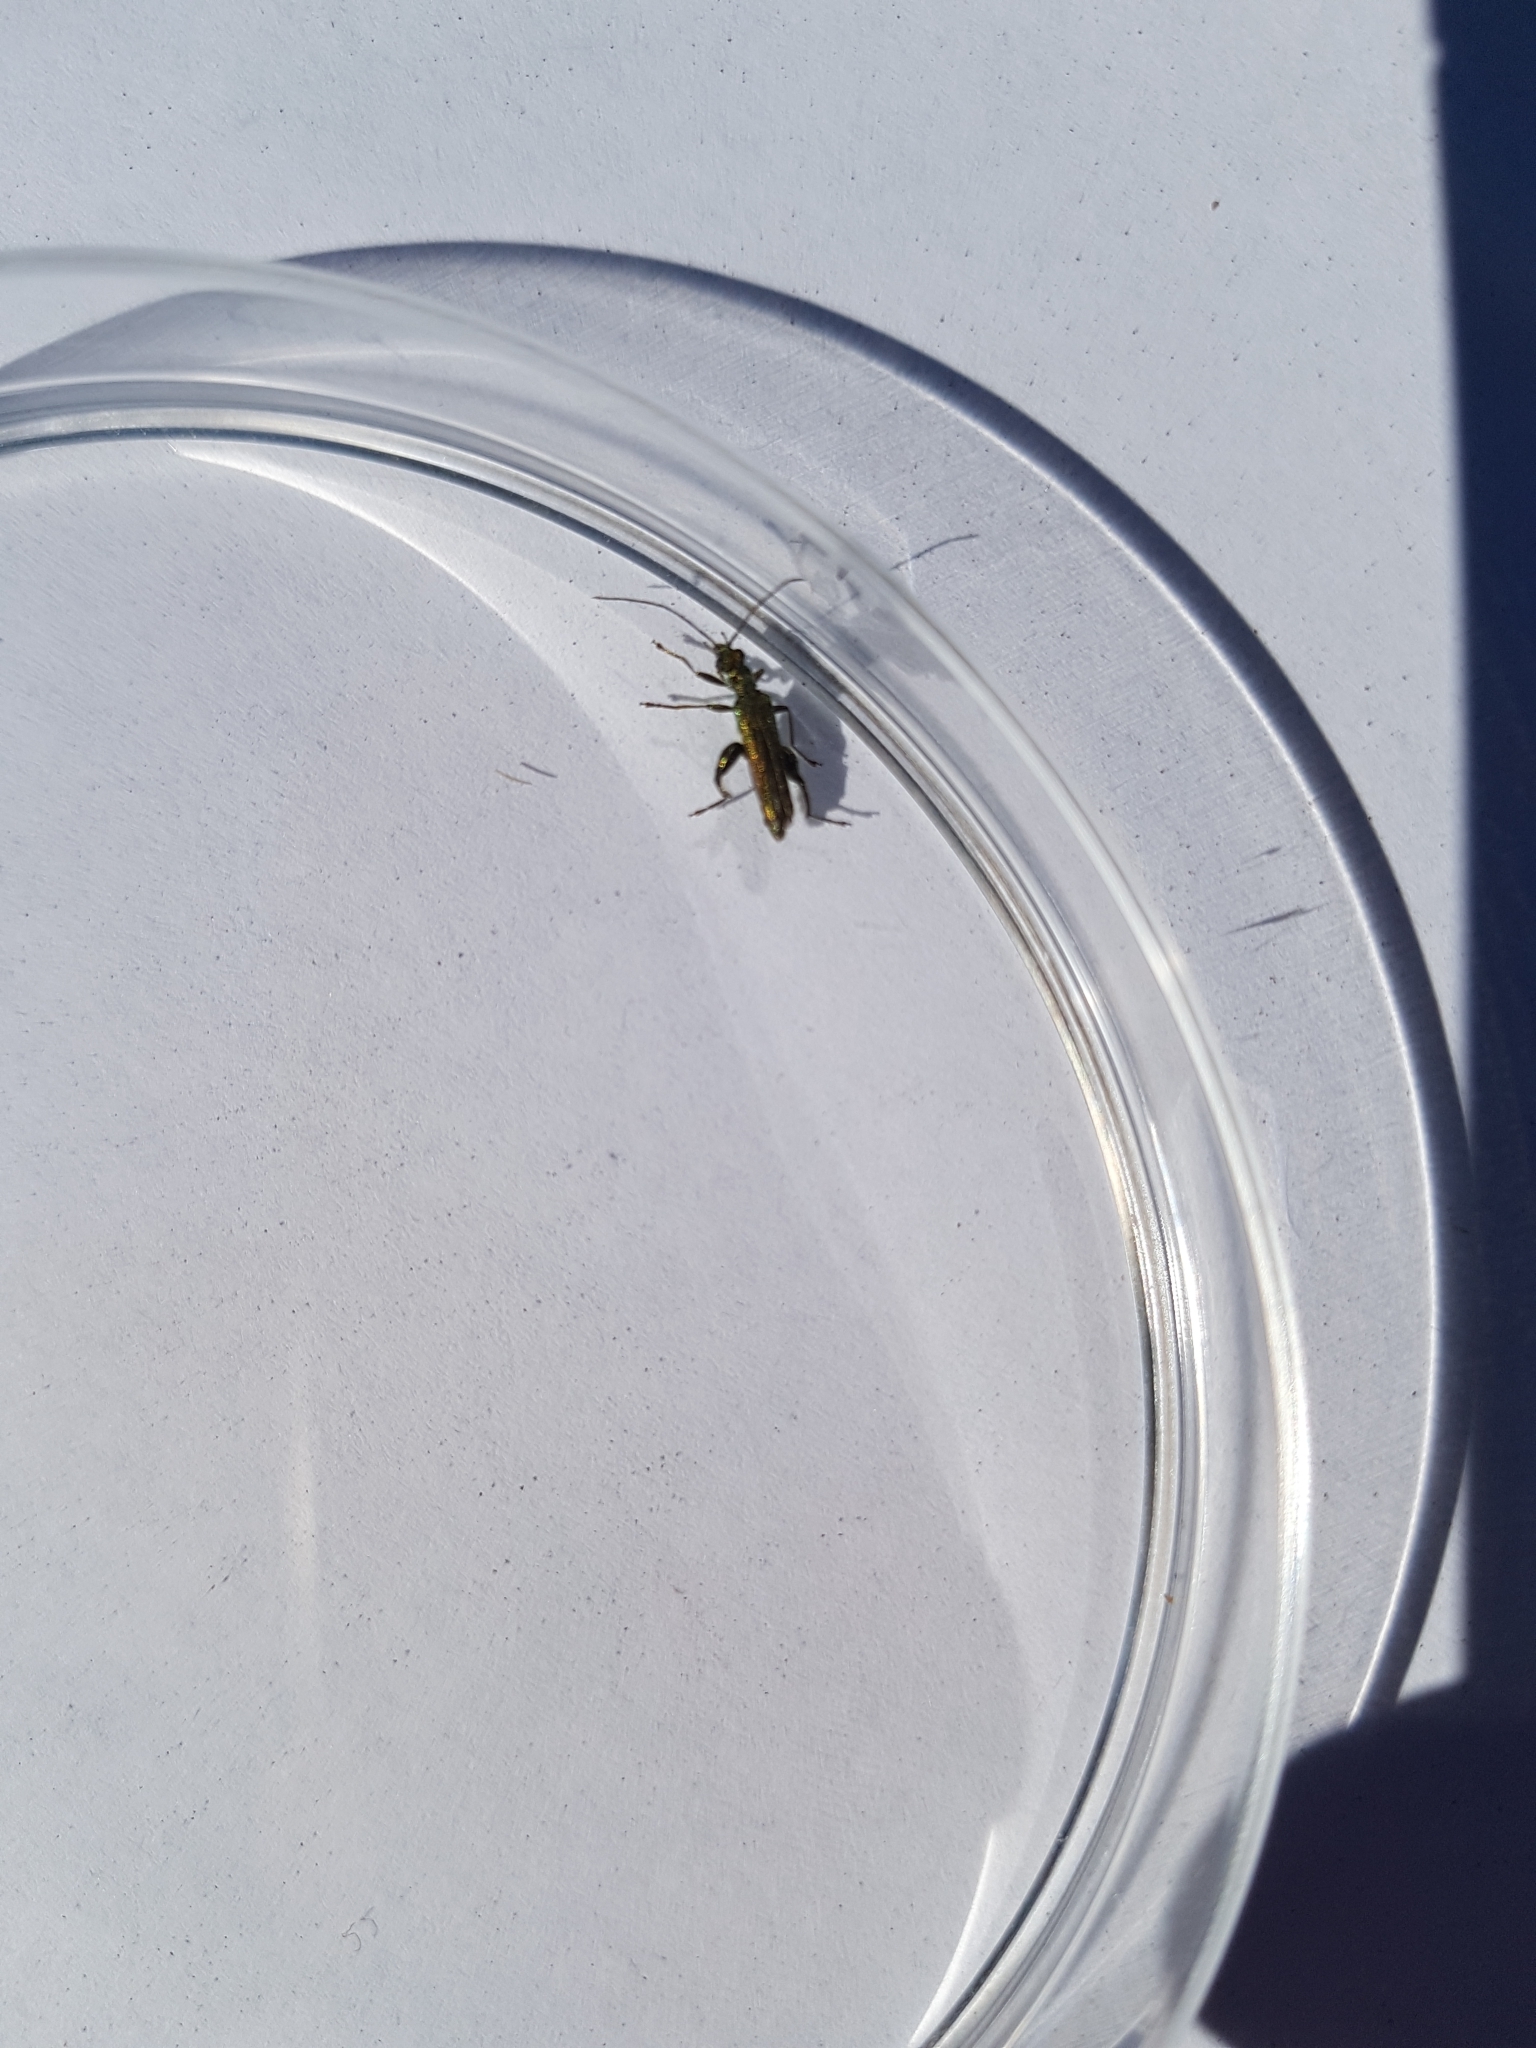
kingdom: Animalia
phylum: Arthropoda
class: Insecta
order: Coleoptera
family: Oedemeridae
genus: Oedemera
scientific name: Oedemera nobilis
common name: Swollen-thighed beetle
